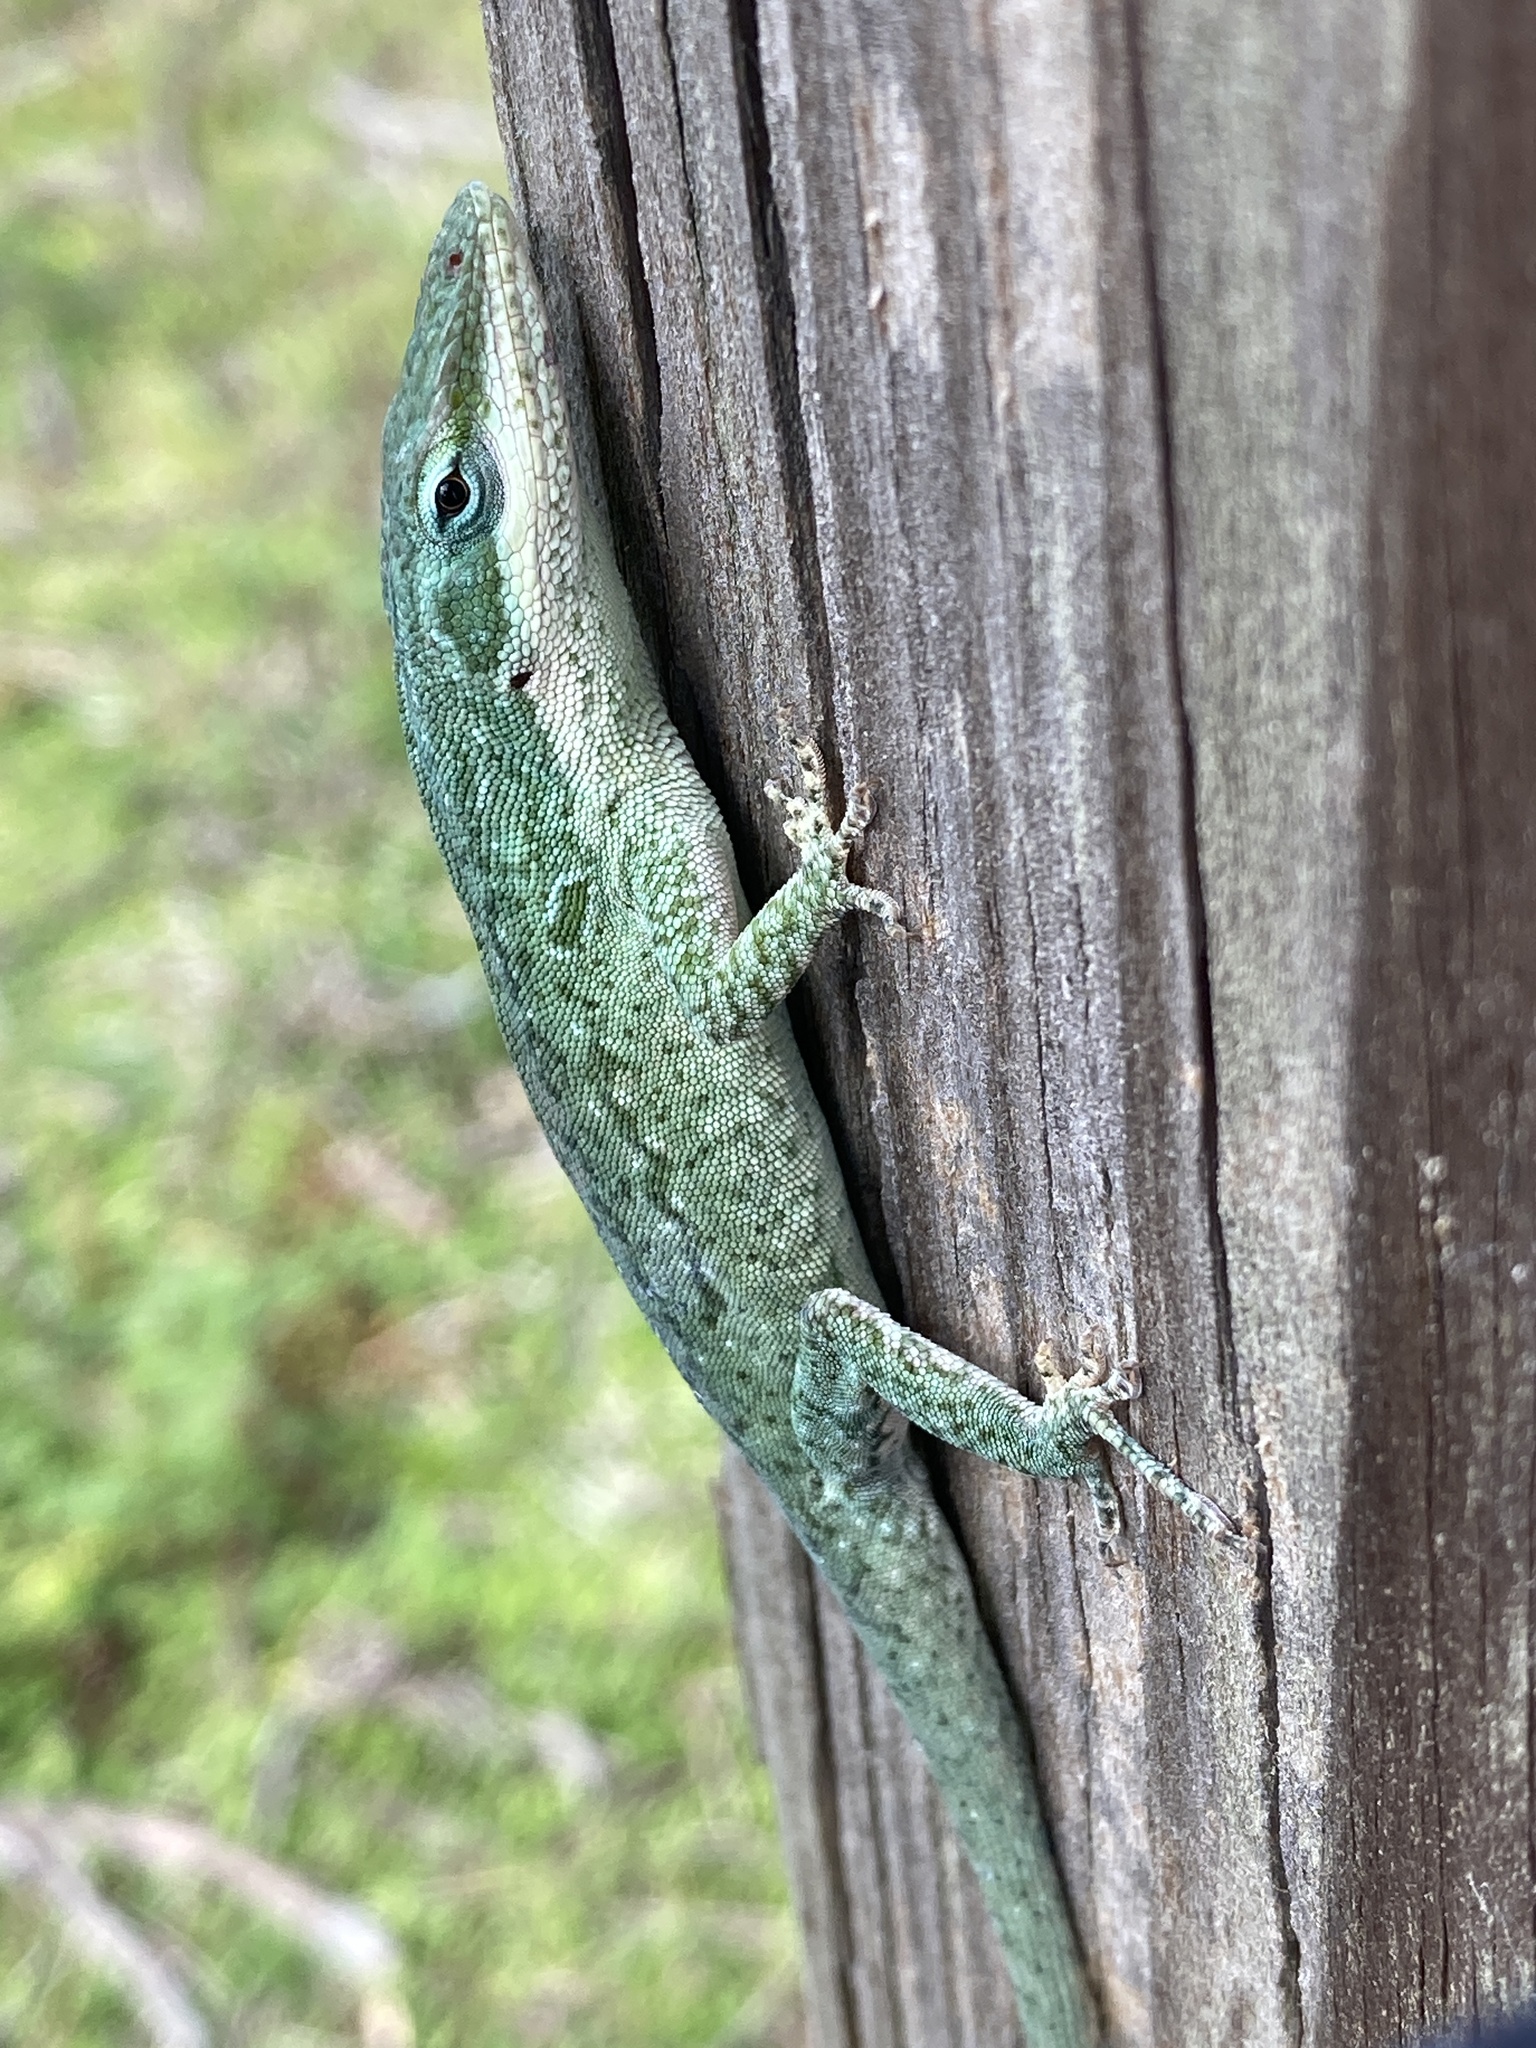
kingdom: Animalia
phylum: Chordata
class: Squamata
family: Dactyloidae
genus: Anolis
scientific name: Anolis carolinensis
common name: Green anole
